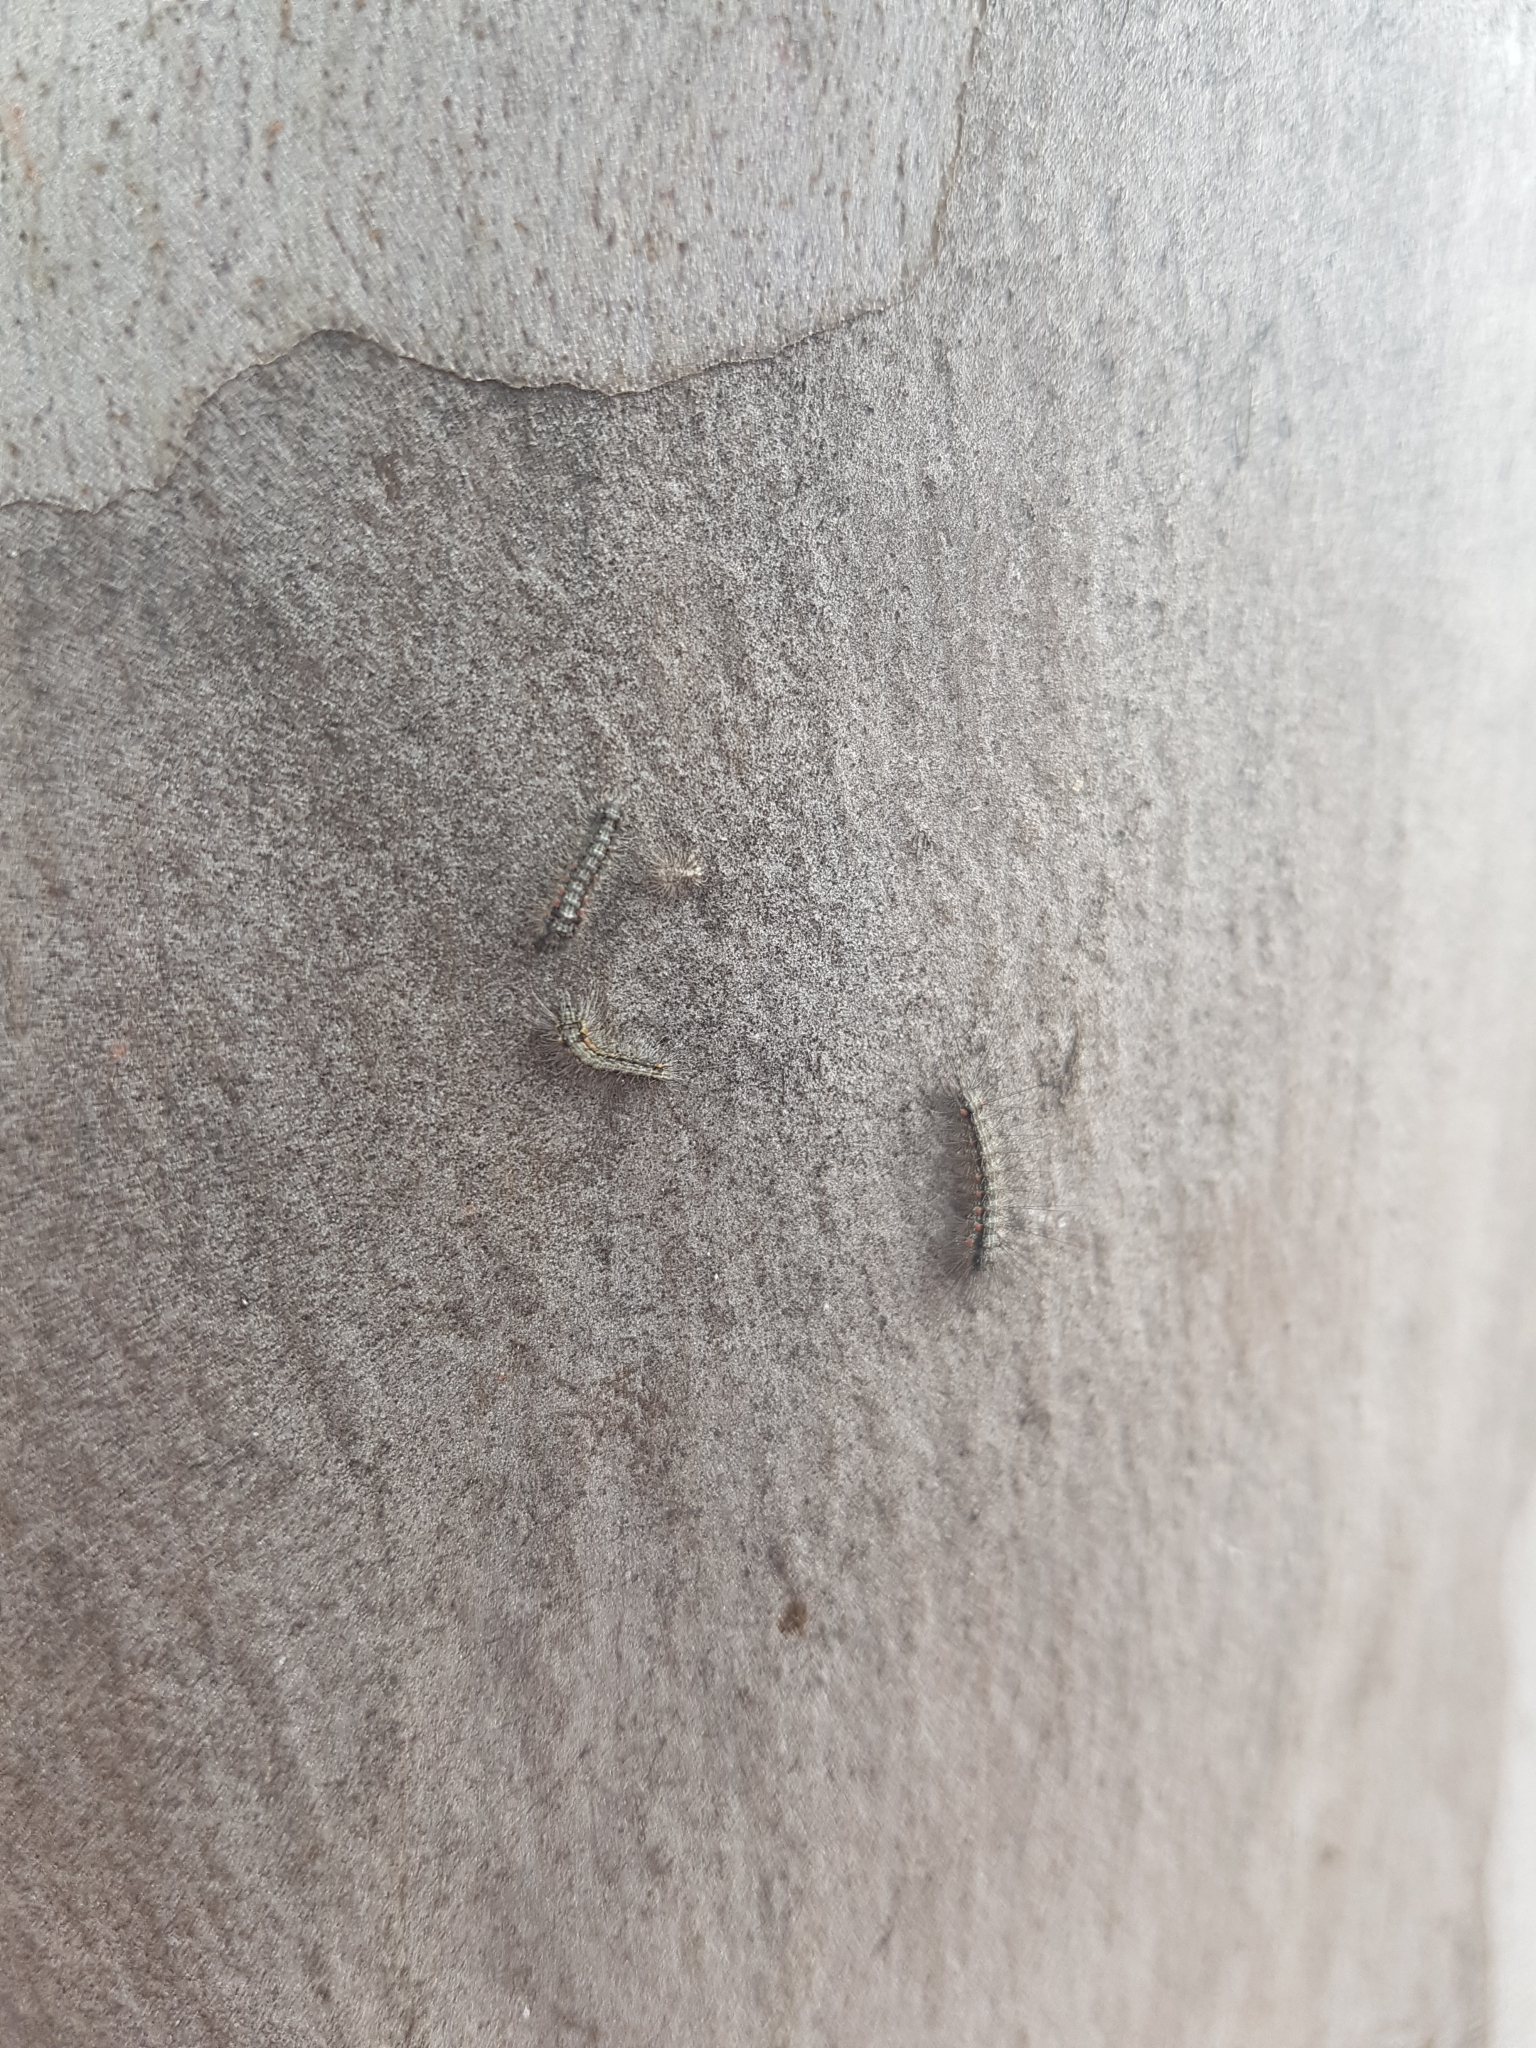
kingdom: Animalia
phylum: Arthropoda
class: Insecta
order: Lepidoptera
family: Erebidae
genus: Anestia
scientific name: Anestia
